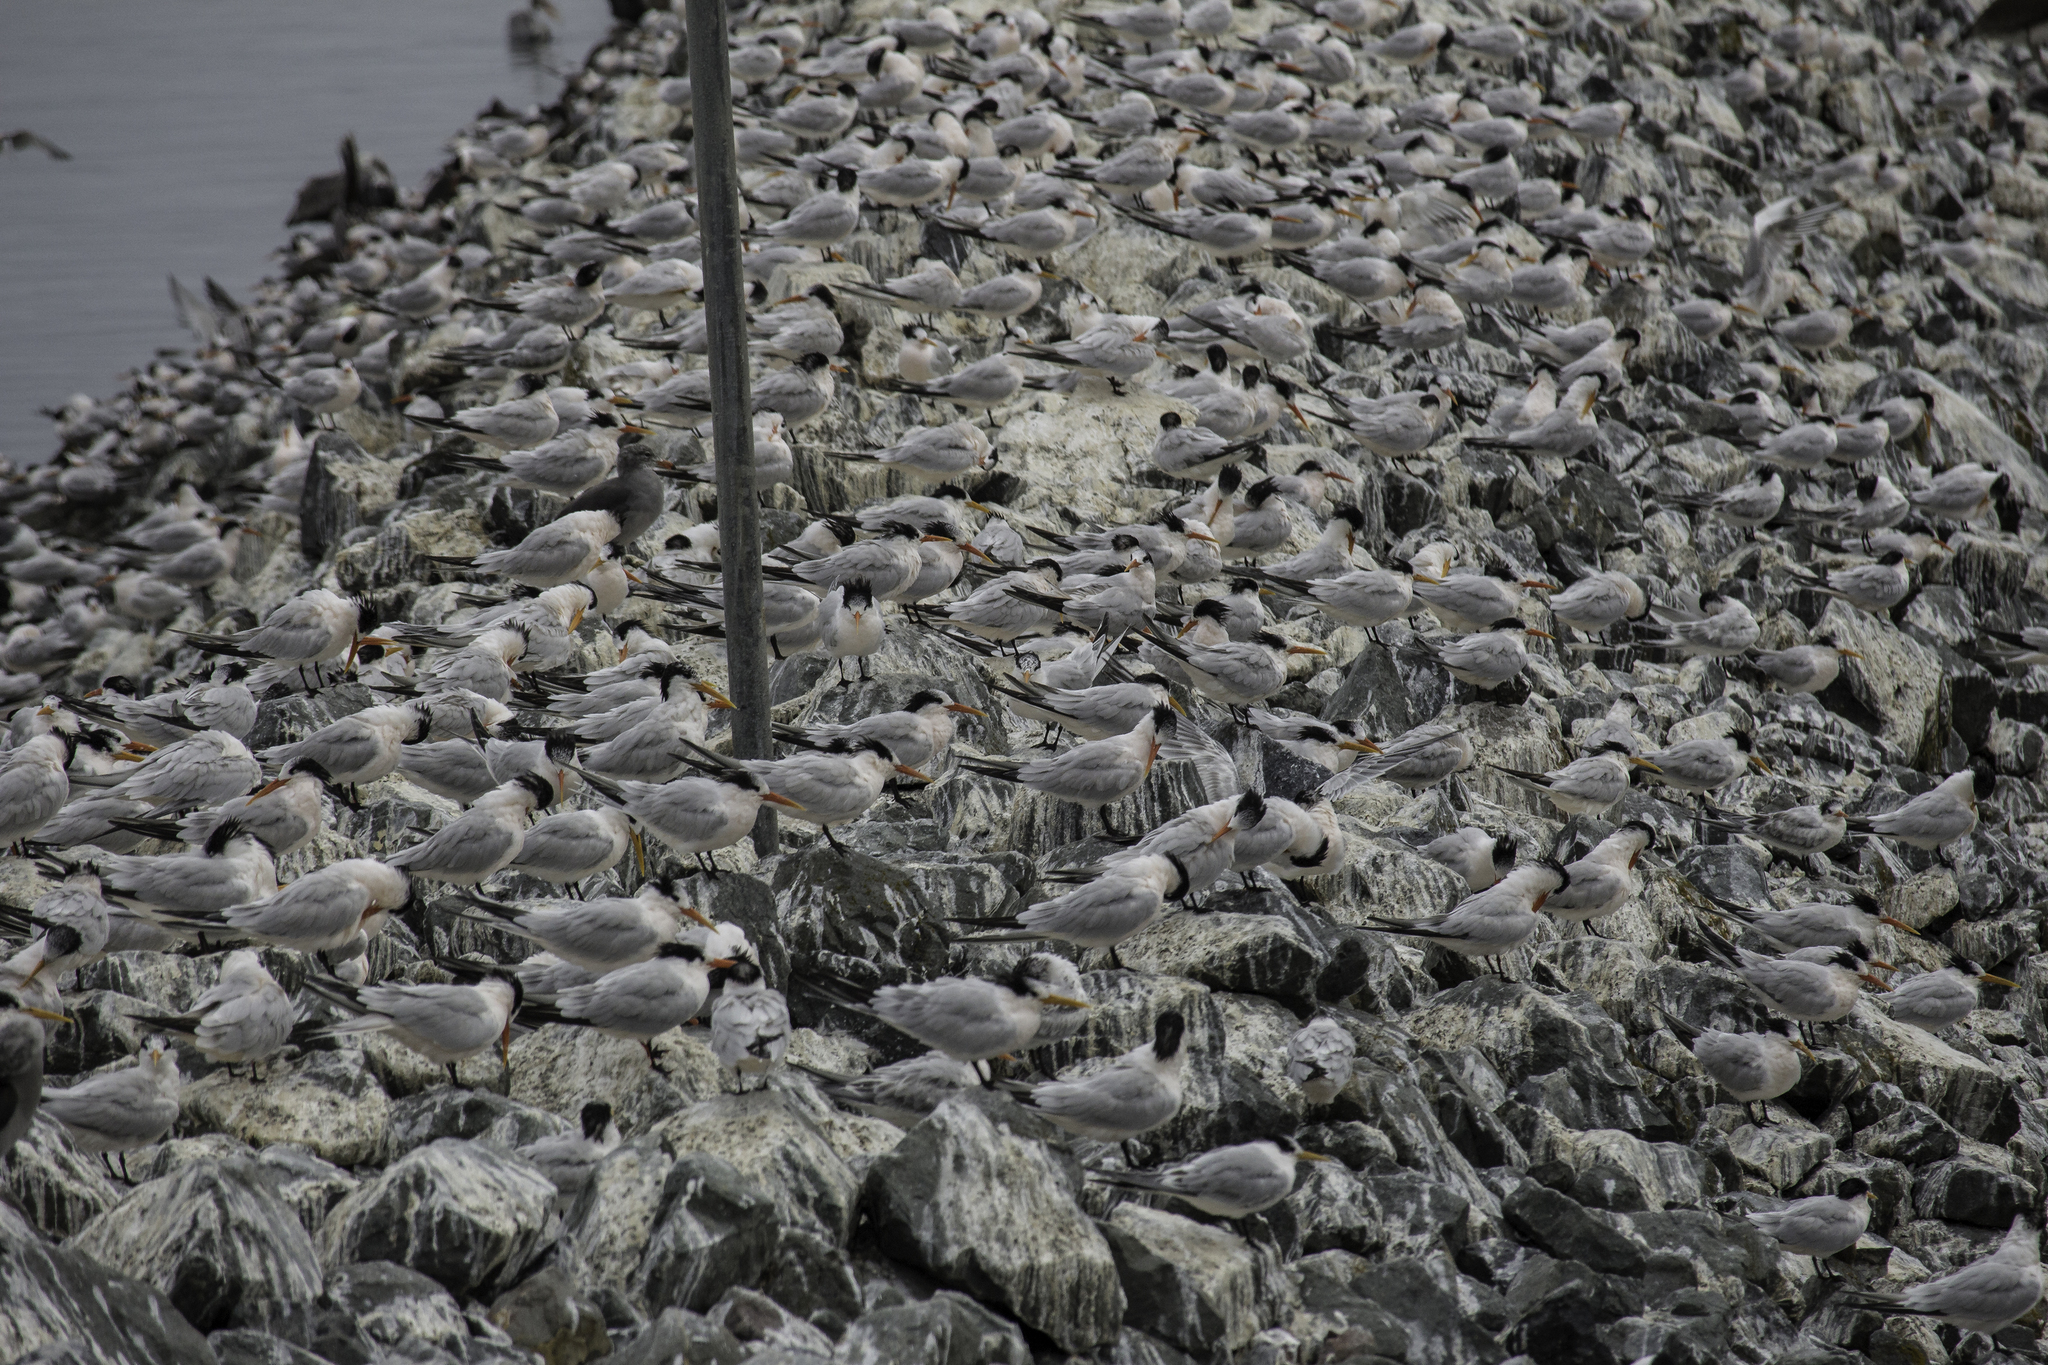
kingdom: Animalia
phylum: Chordata
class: Aves
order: Charadriiformes
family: Laridae
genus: Thalasseus
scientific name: Thalasseus elegans
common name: Elegant tern
